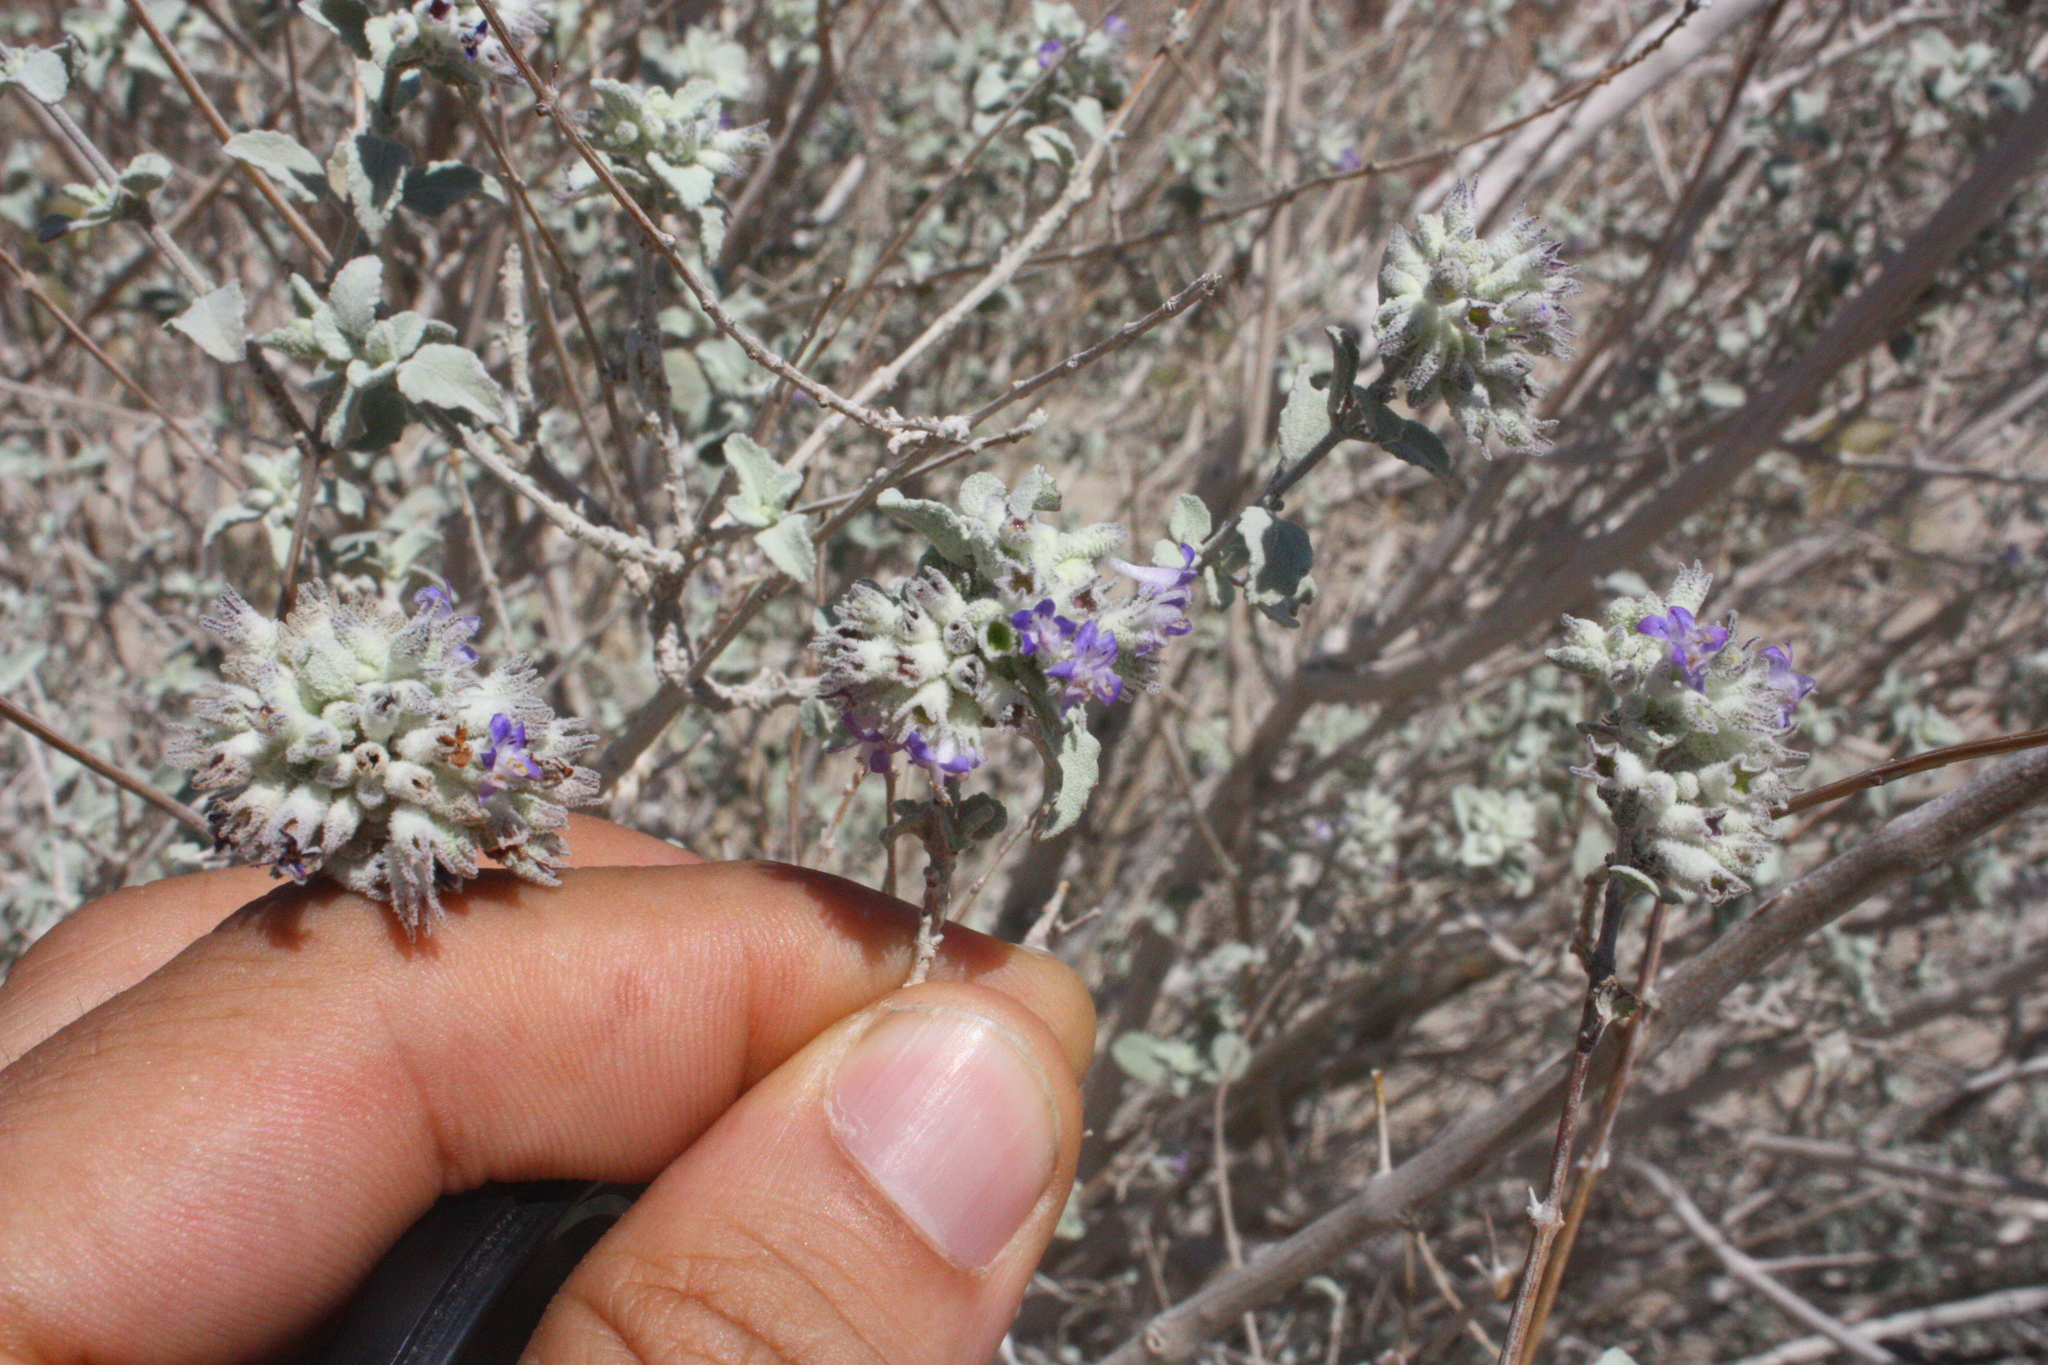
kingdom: Plantae
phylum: Tracheophyta
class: Magnoliopsida
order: Lamiales
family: Lamiaceae
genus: Condea
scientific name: Condea emoryi
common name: Chia
